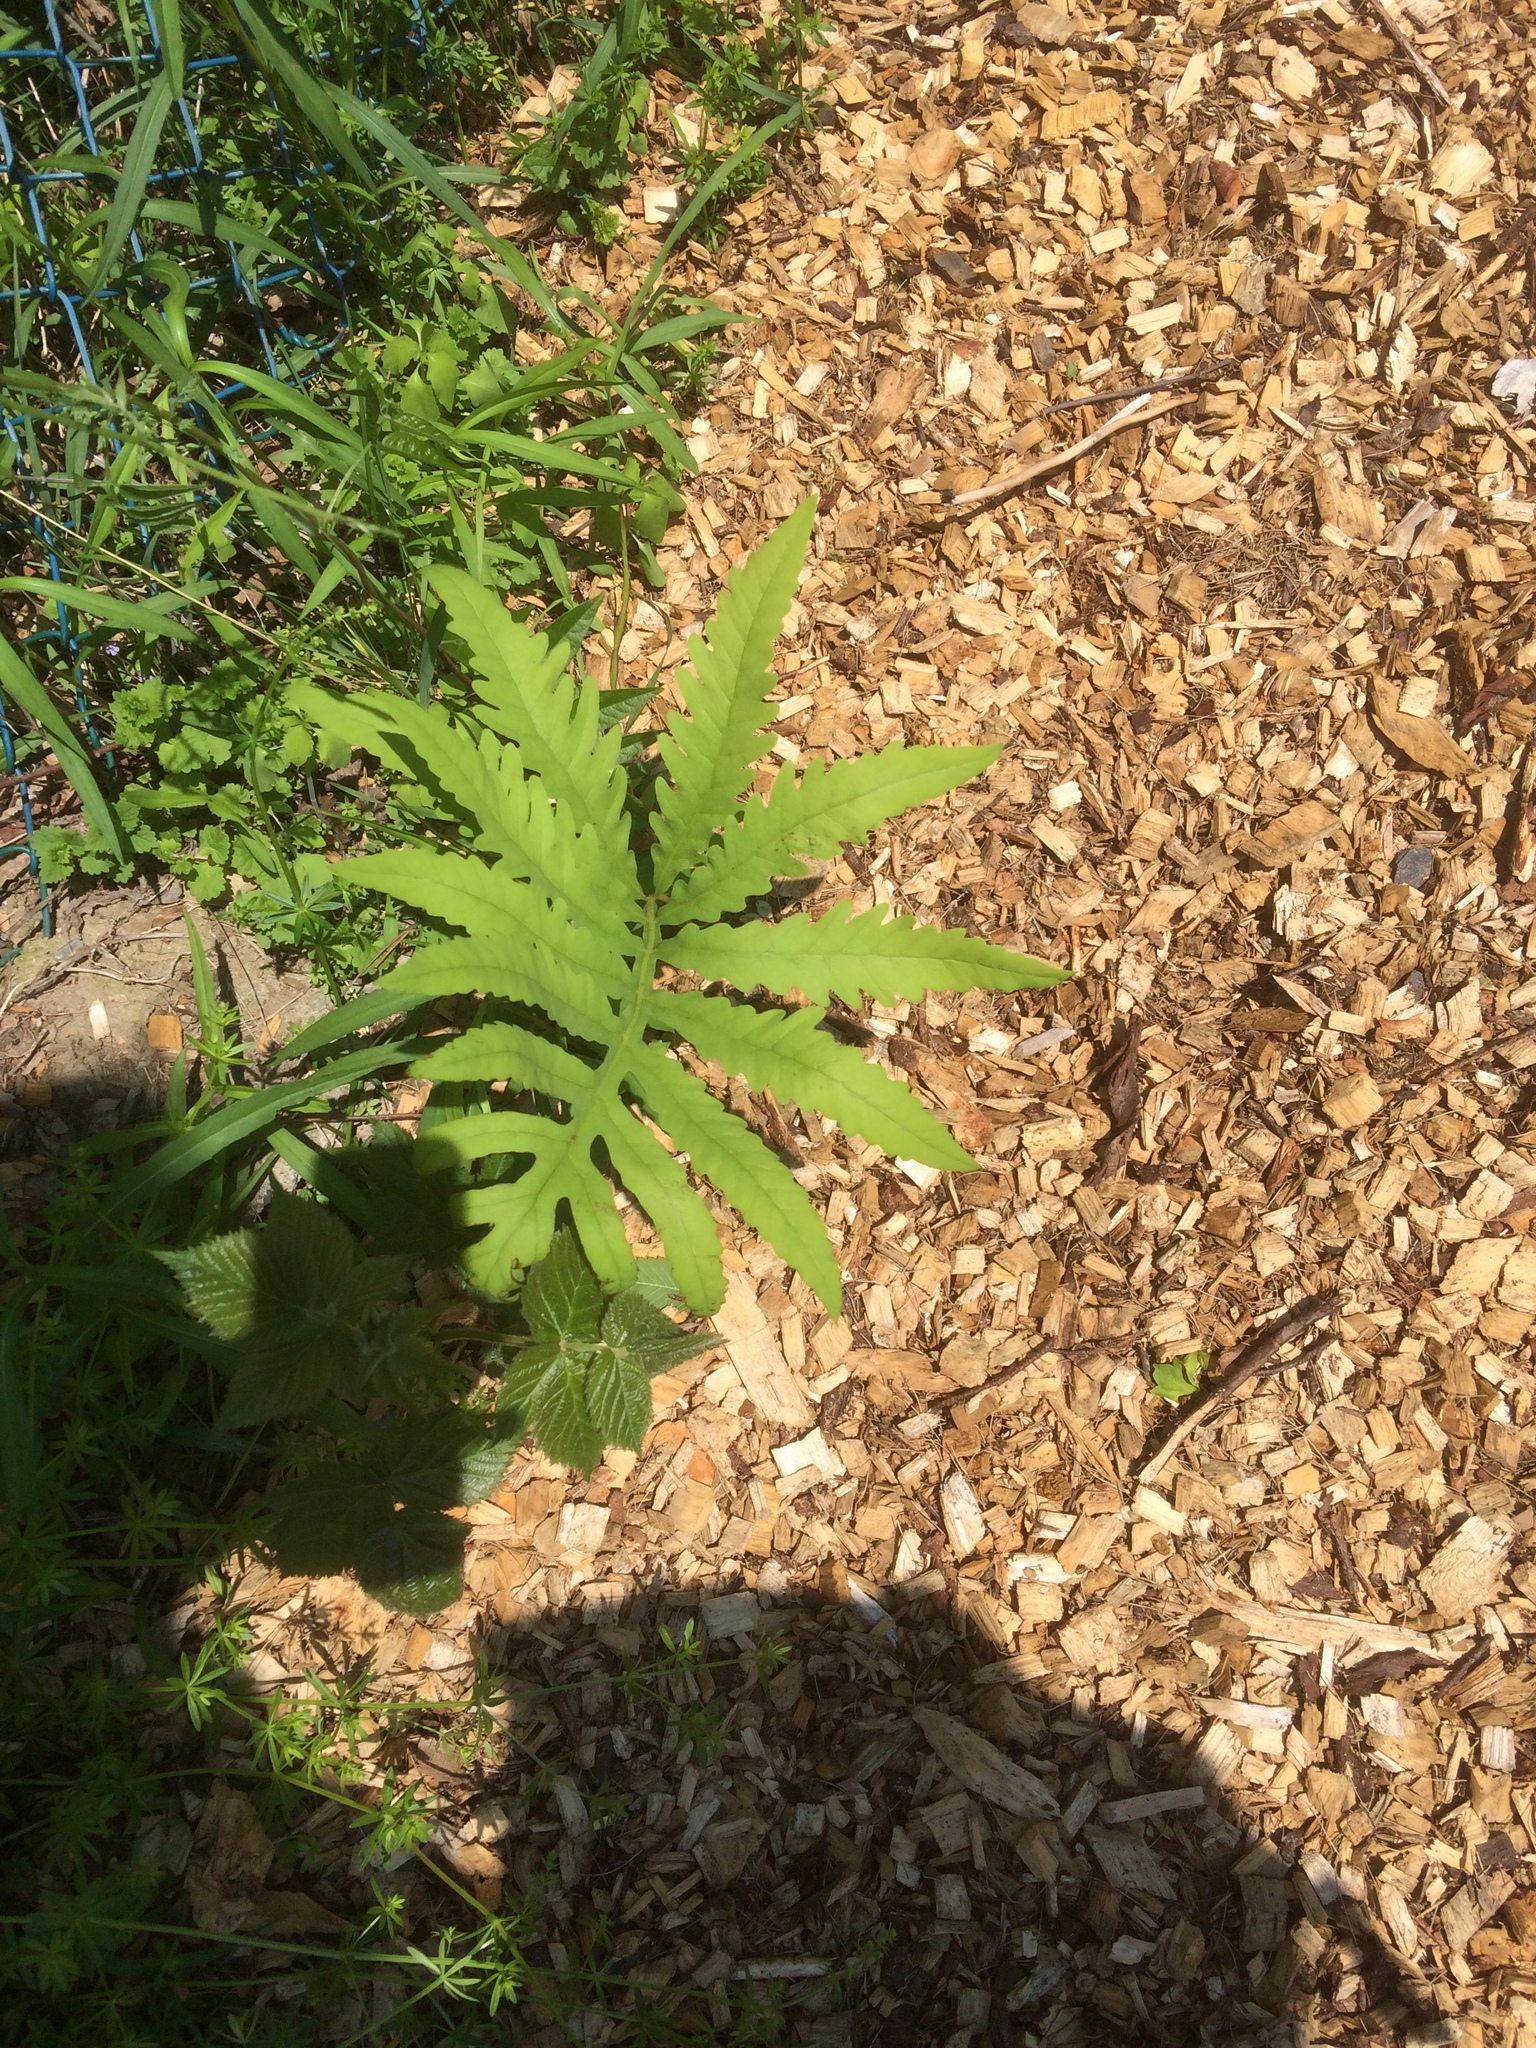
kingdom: Plantae
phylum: Tracheophyta
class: Polypodiopsida
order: Polypodiales
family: Onocleaceae
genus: Onoclea
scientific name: Onoclea sensibilis
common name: Sensitive fern
